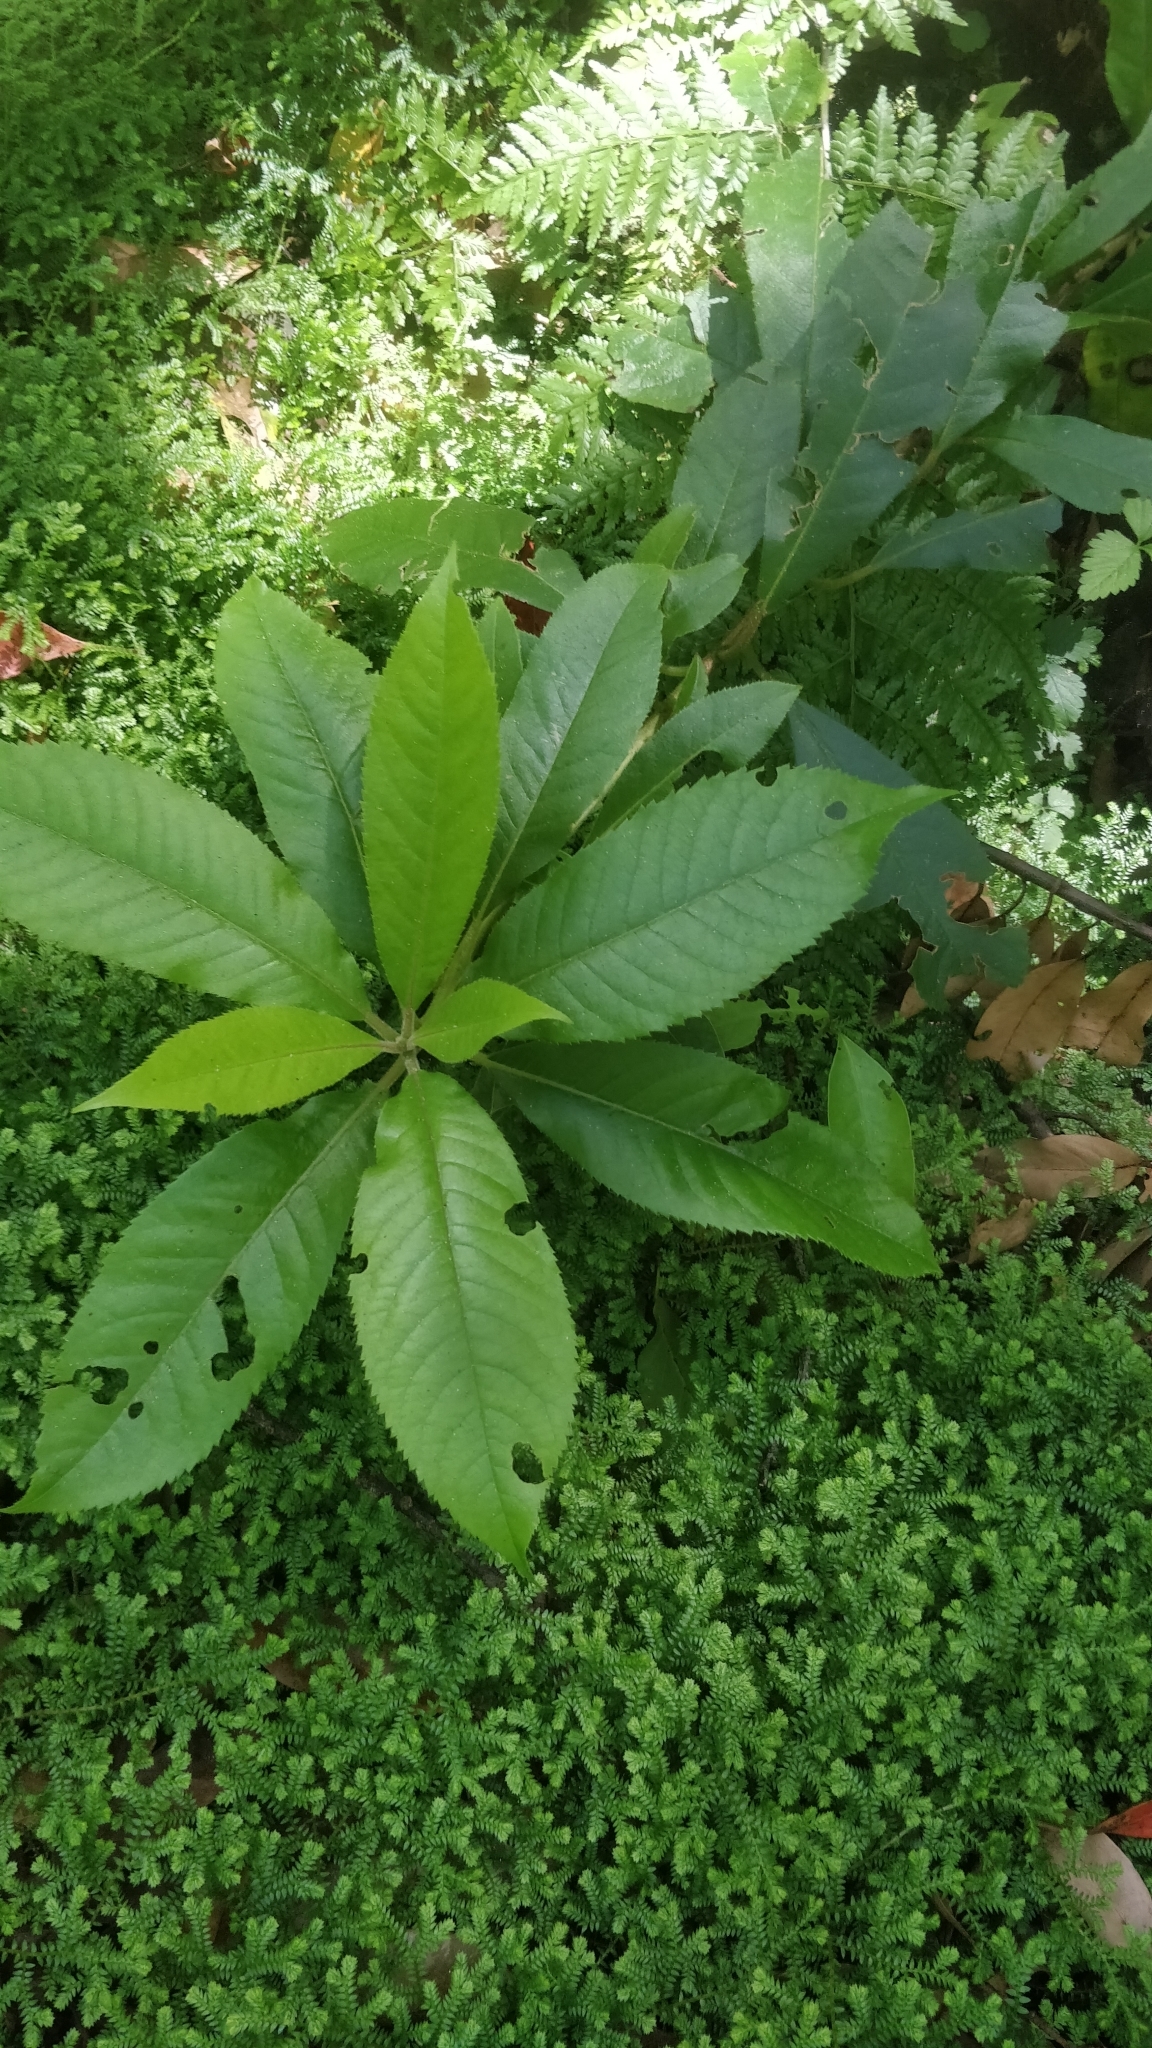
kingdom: Plantae
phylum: Tracheophyta
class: Magnoliopsida
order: Ericales
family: Clethraceae
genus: Clethra
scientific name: Clethra arborea
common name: Lily-of-the-valley-tree
